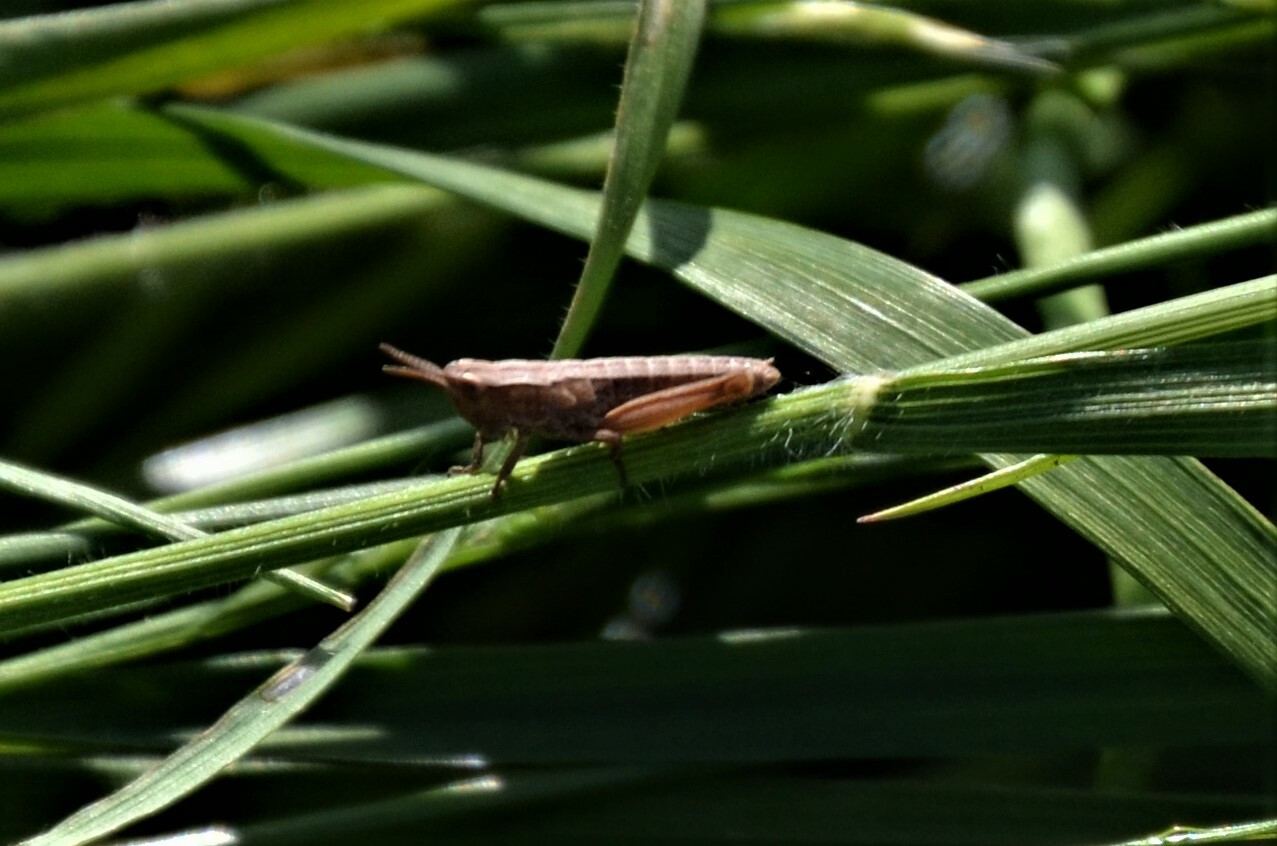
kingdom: Animalia
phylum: Arthropoda
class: Insecta
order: Orthoptera
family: Acrididae
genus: Pseudochorthippus
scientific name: Pseudochorthippus parallelus
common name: Meadow grasshopper
